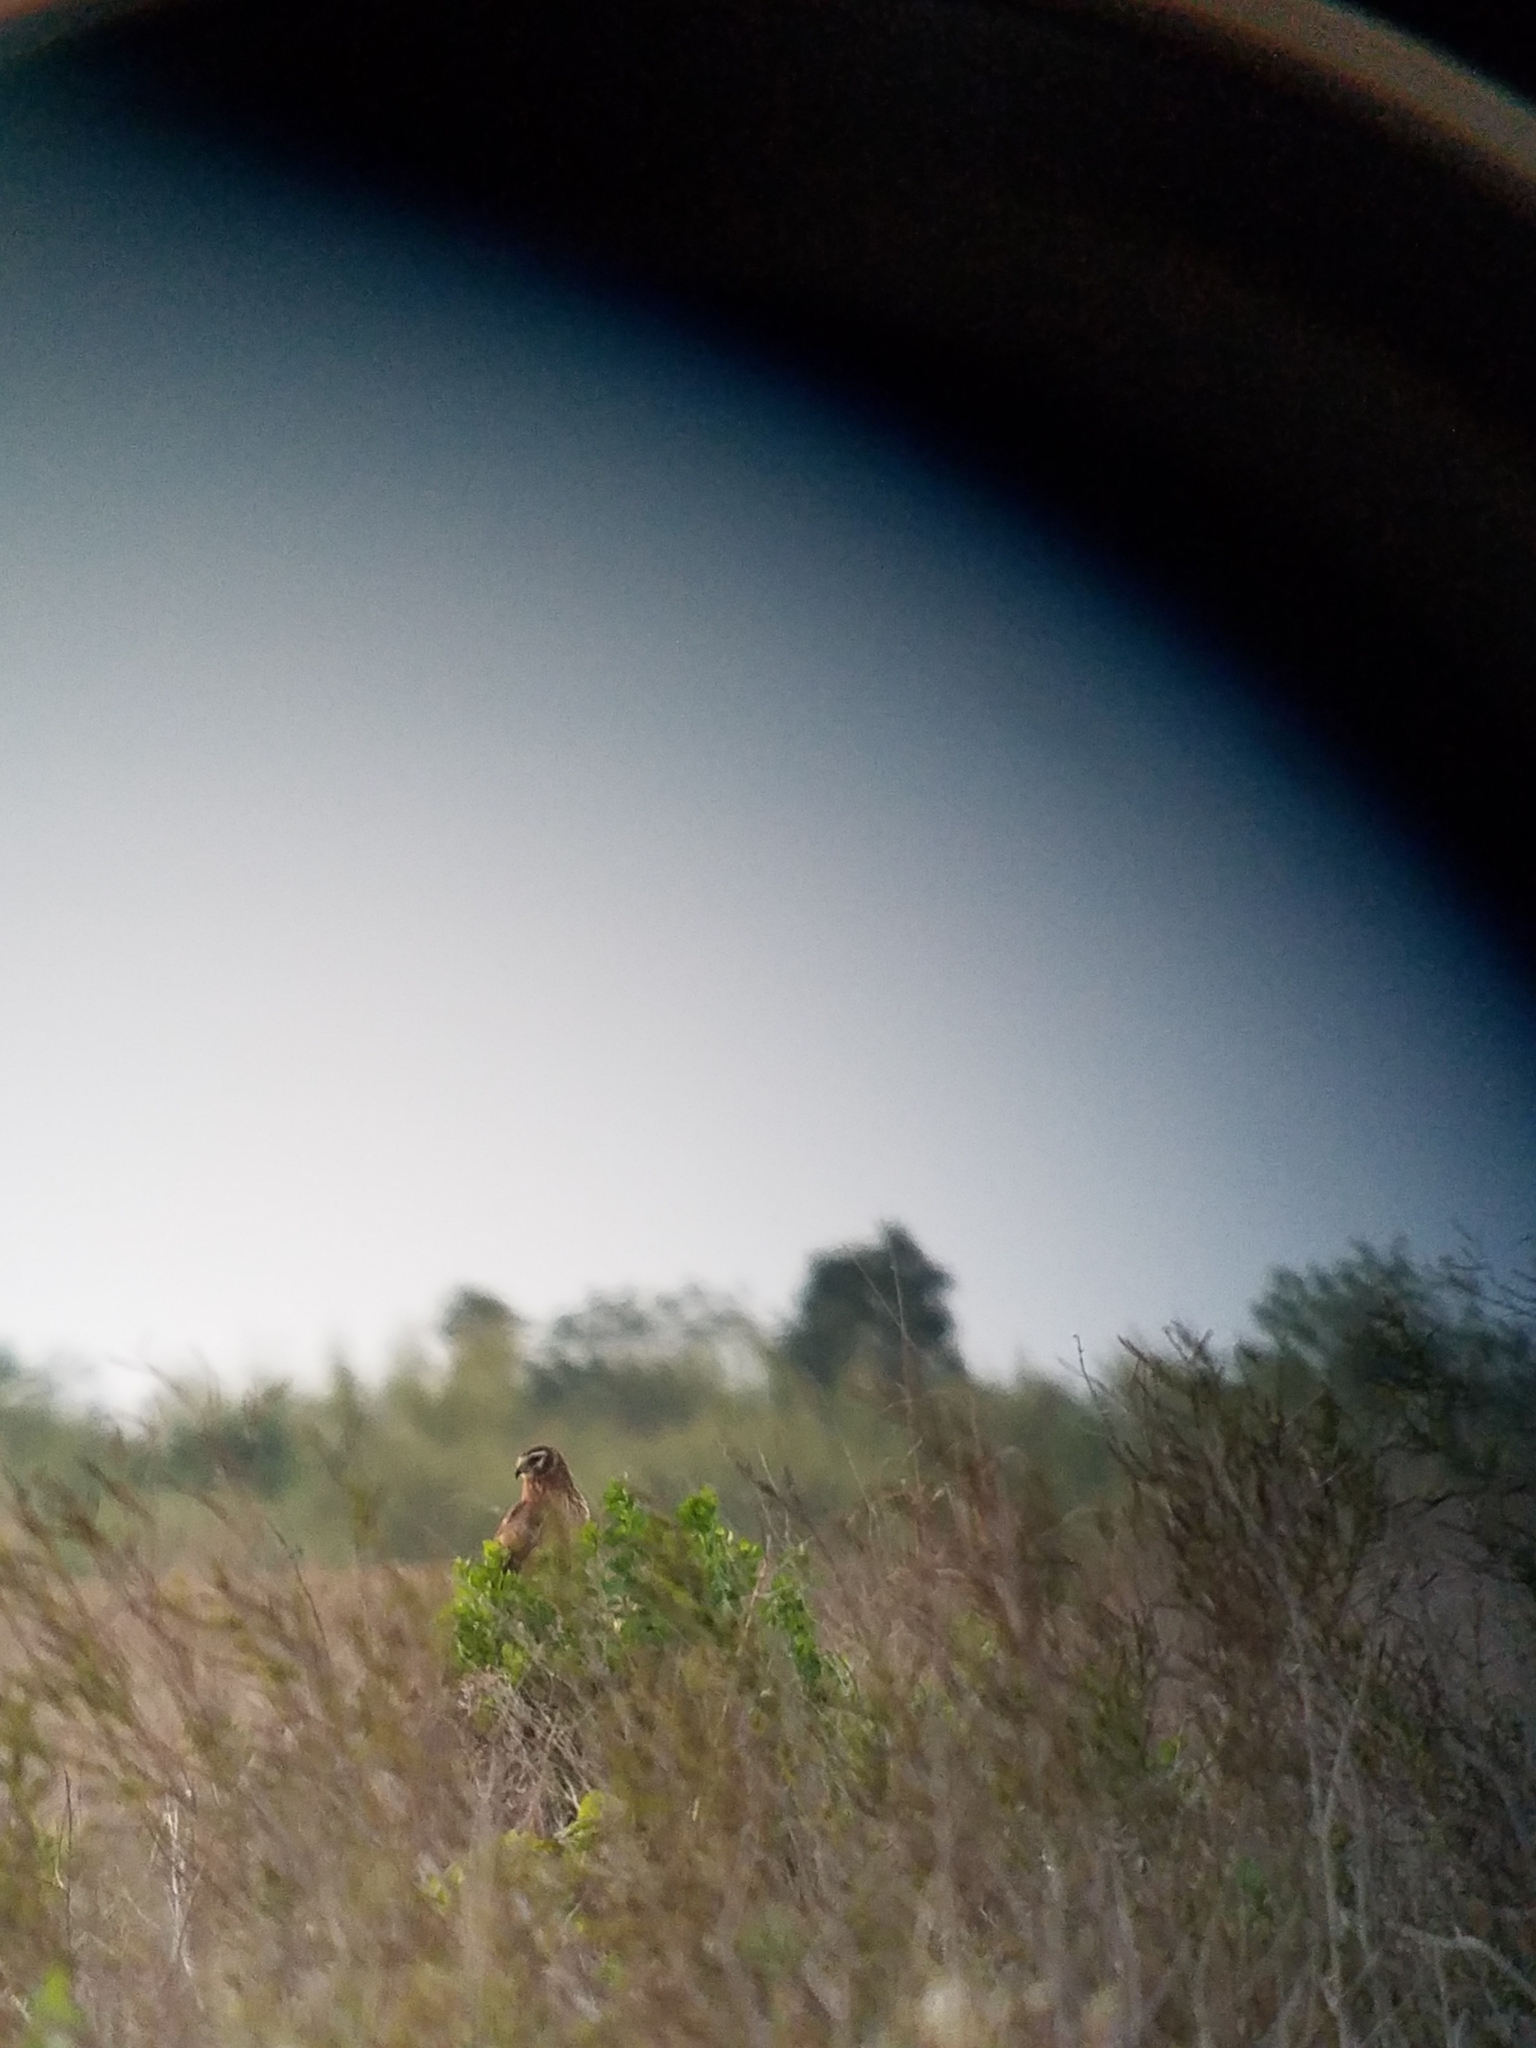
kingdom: Animalia
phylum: Chordata
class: Aves
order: Accipitriformes
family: Accipitridae
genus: Circus
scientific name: Circus cyaneus
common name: Hen harrier
